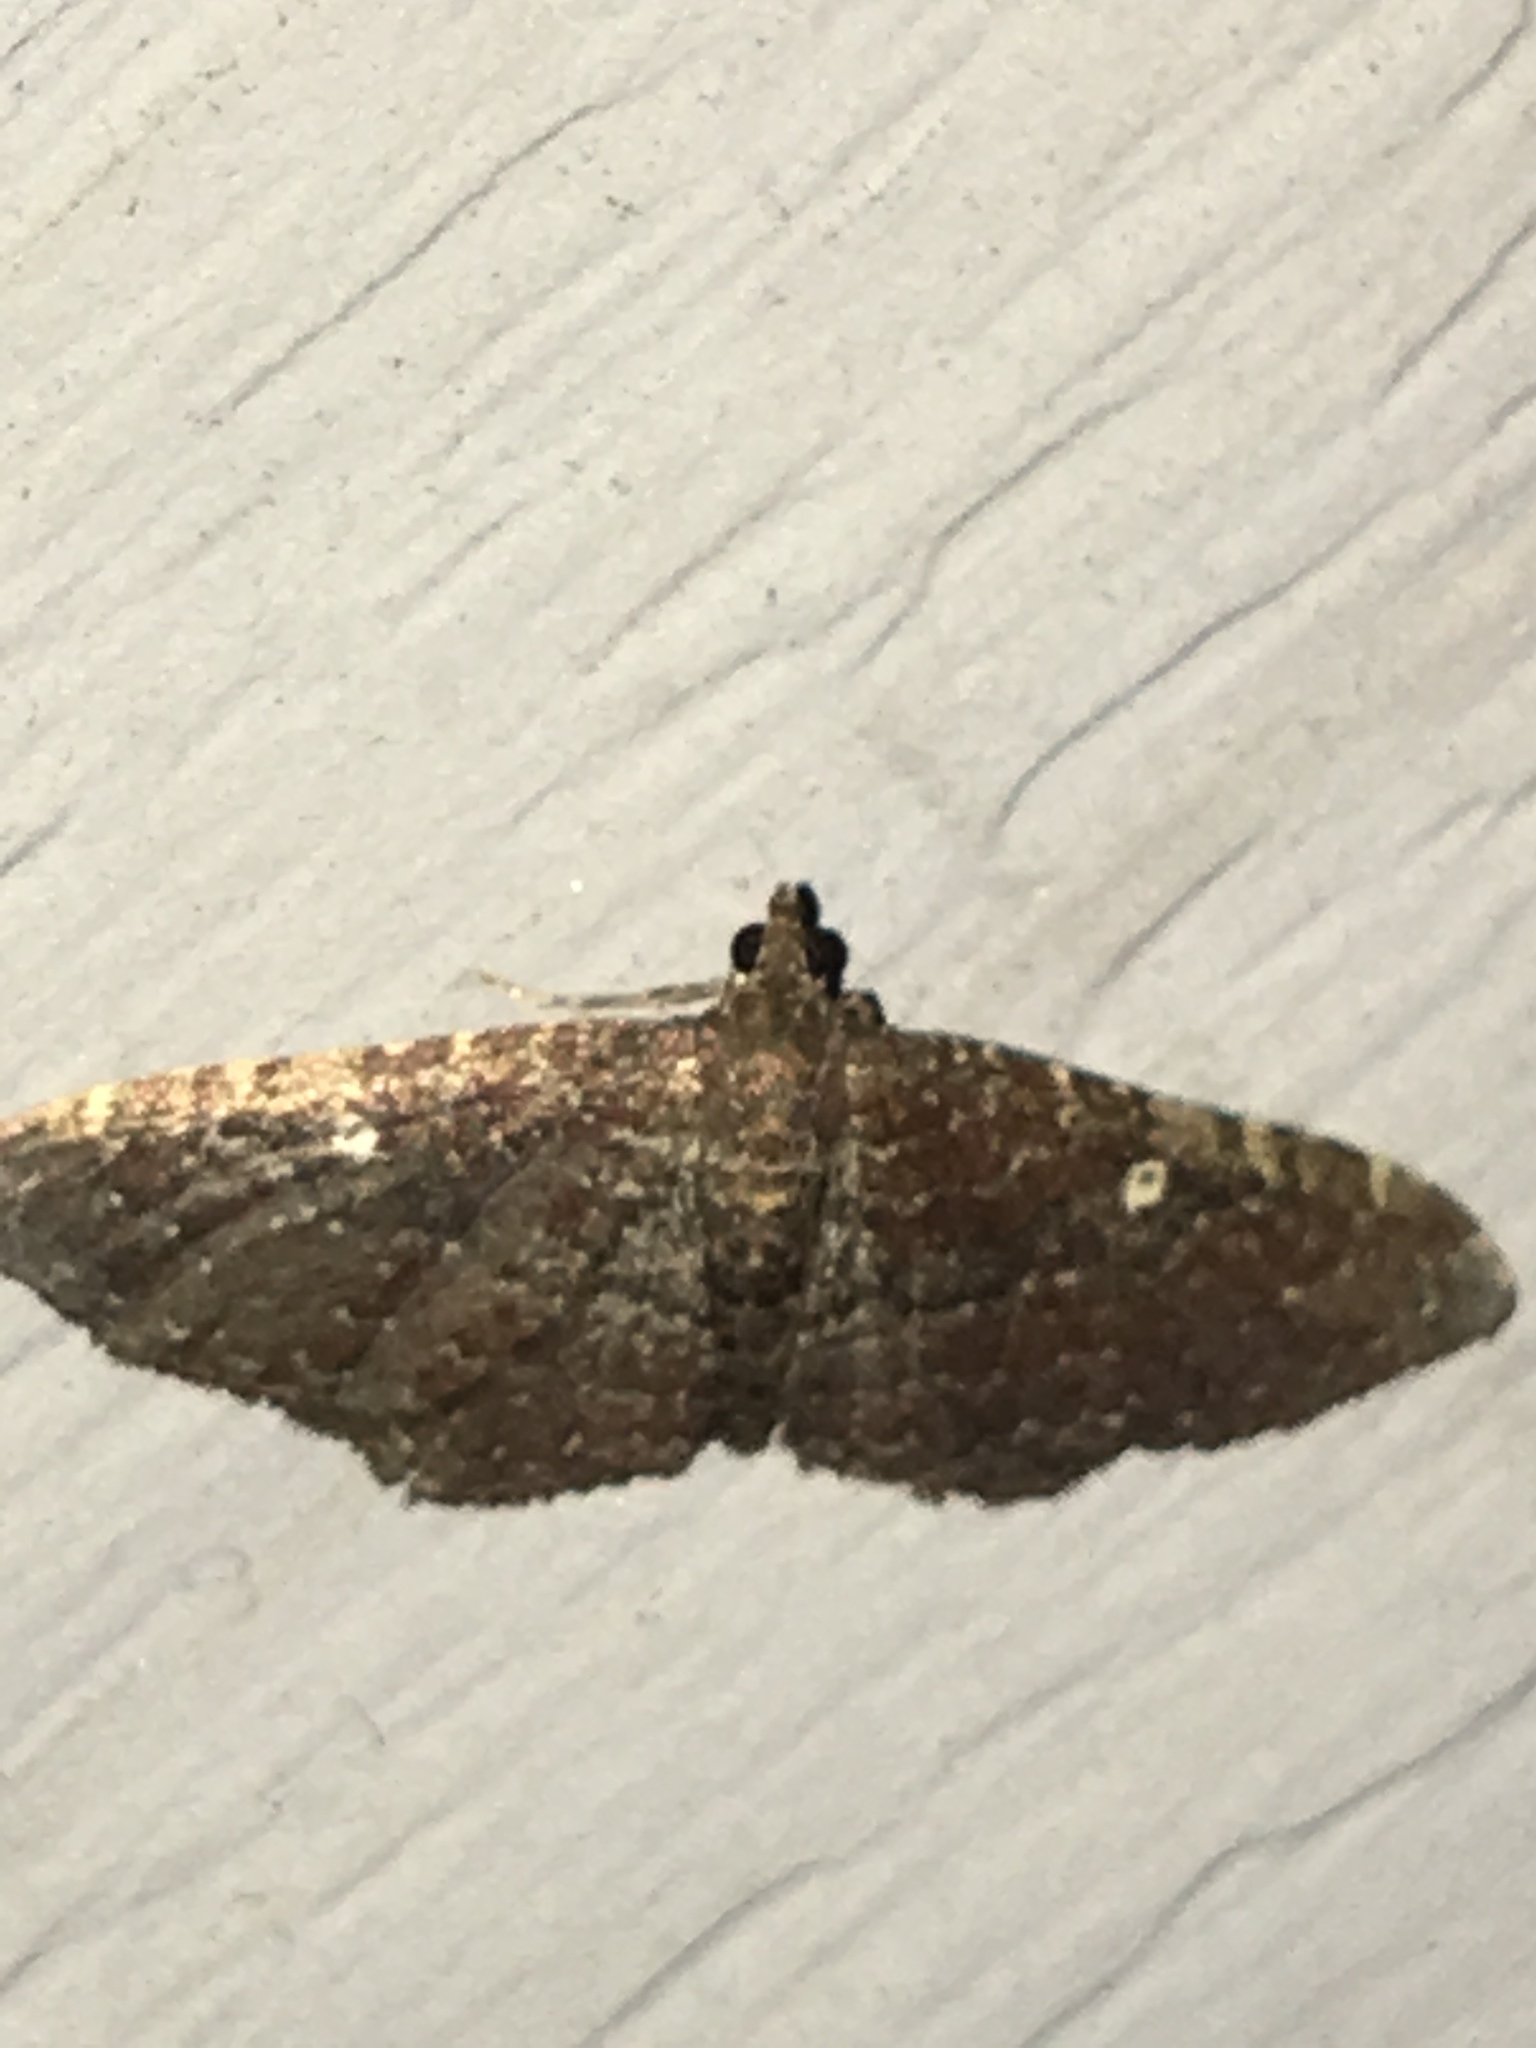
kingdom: Animalia
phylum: Arthropoda
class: Insecta
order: Lepidoptera
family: Geometridae
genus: Orthonama
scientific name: Orthonama obstipata
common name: The gem
